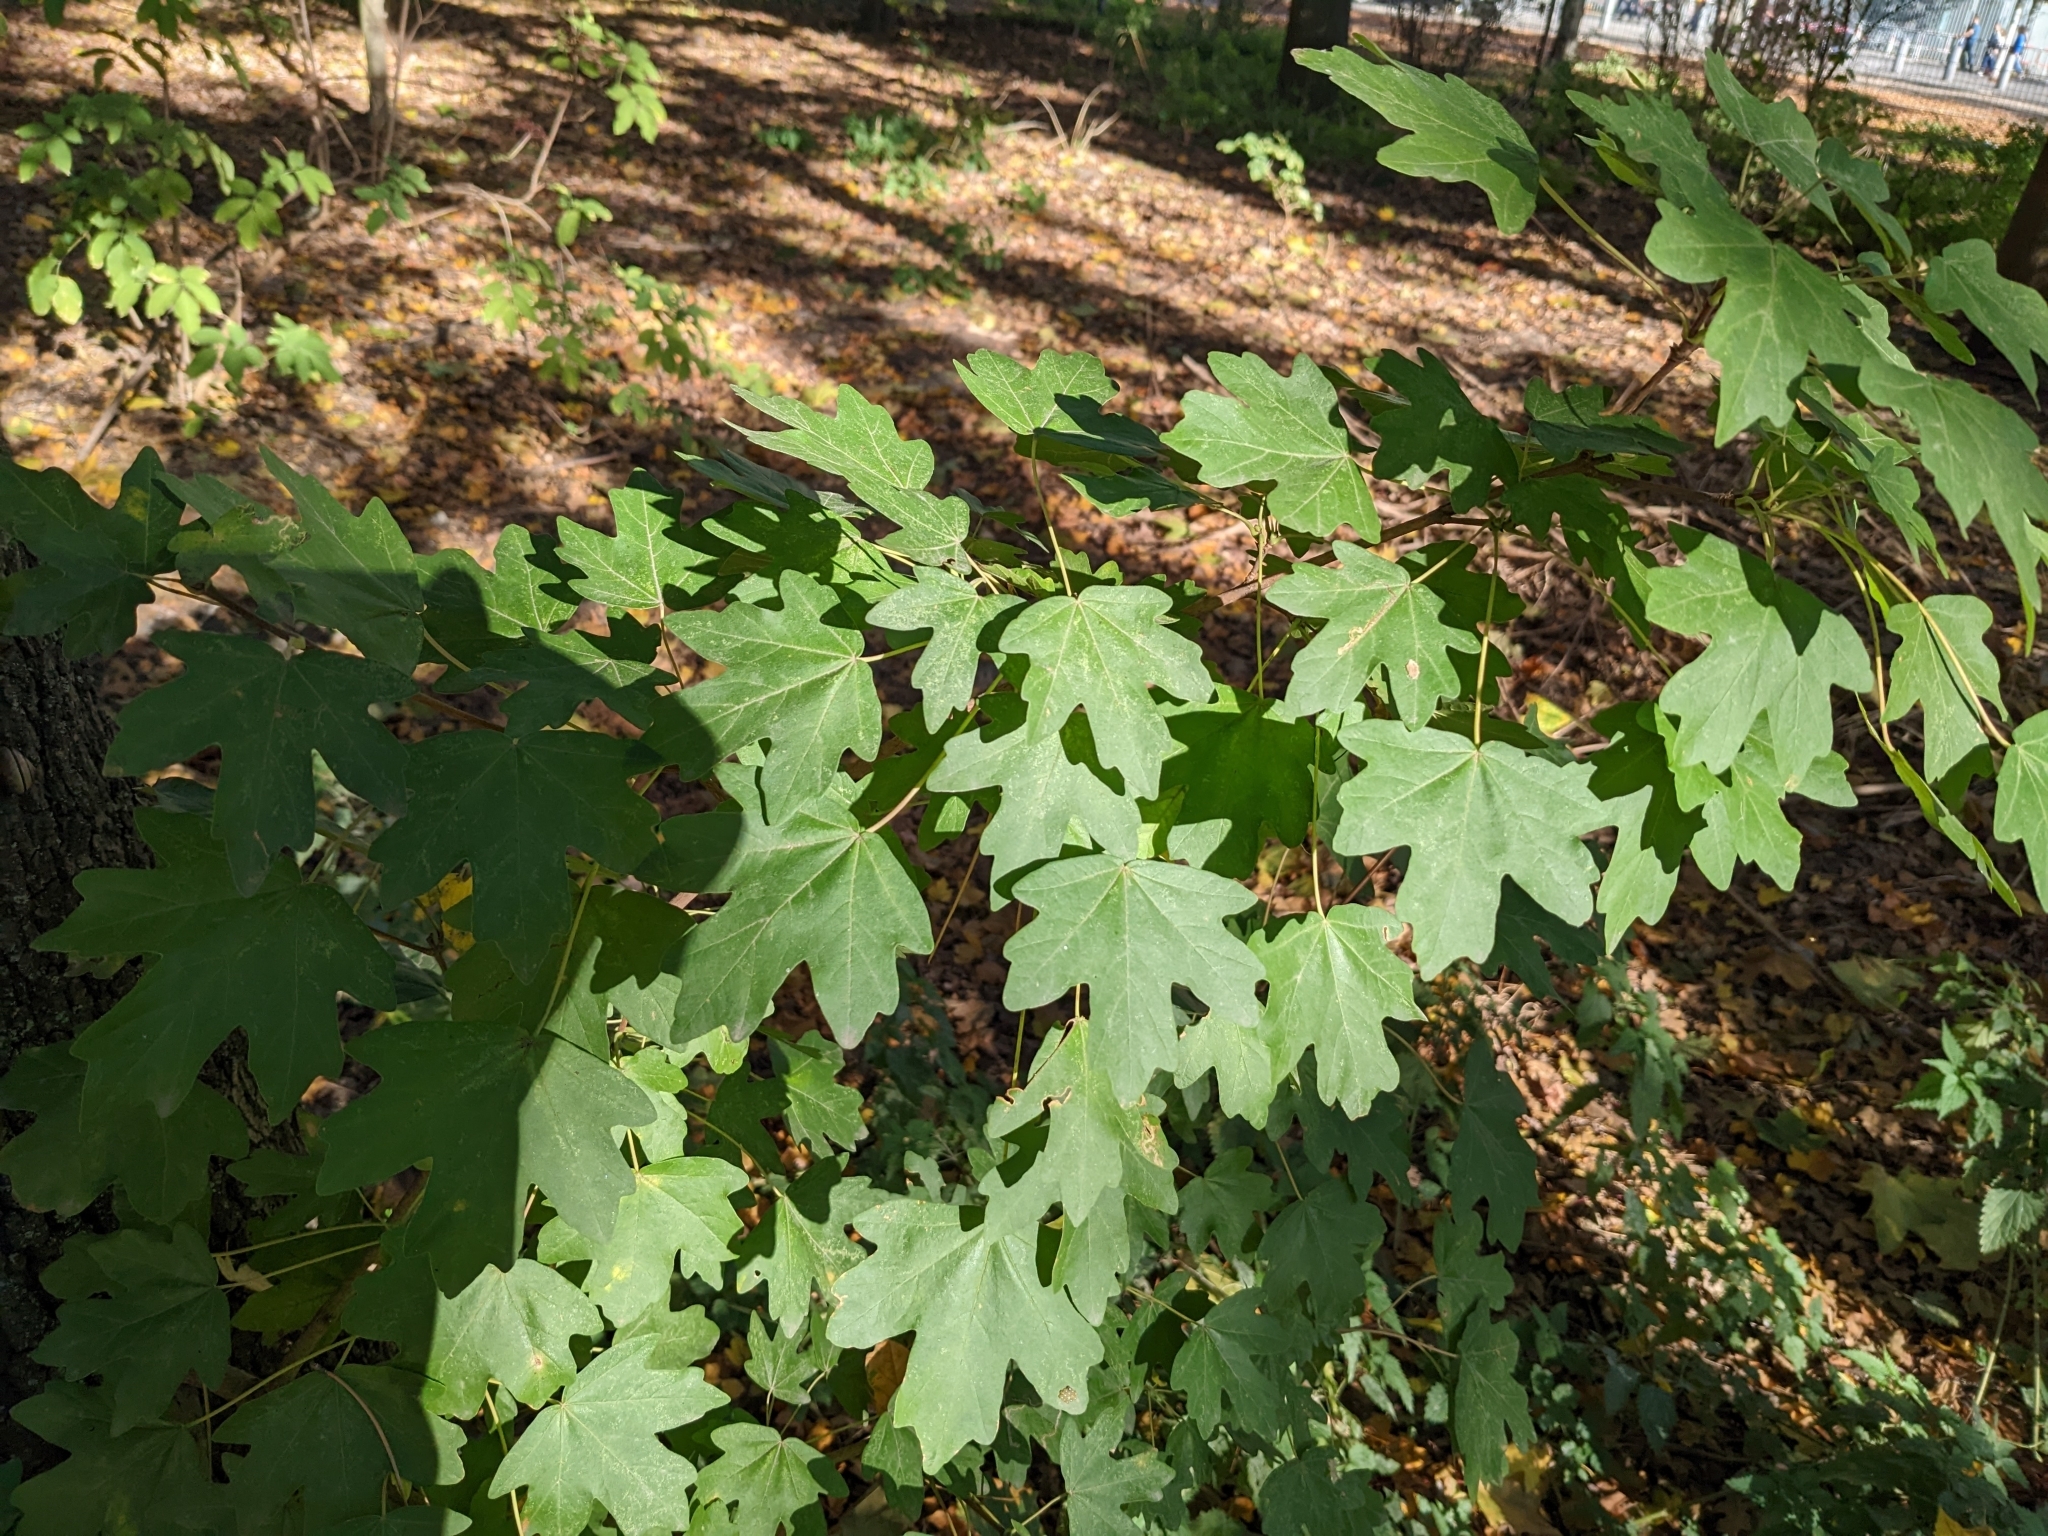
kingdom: Plantae
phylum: Tracheophyta
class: Magnoliopsida
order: Sapindales
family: Sapindaceae
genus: Acer
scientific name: Acer campestre
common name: Field maple
